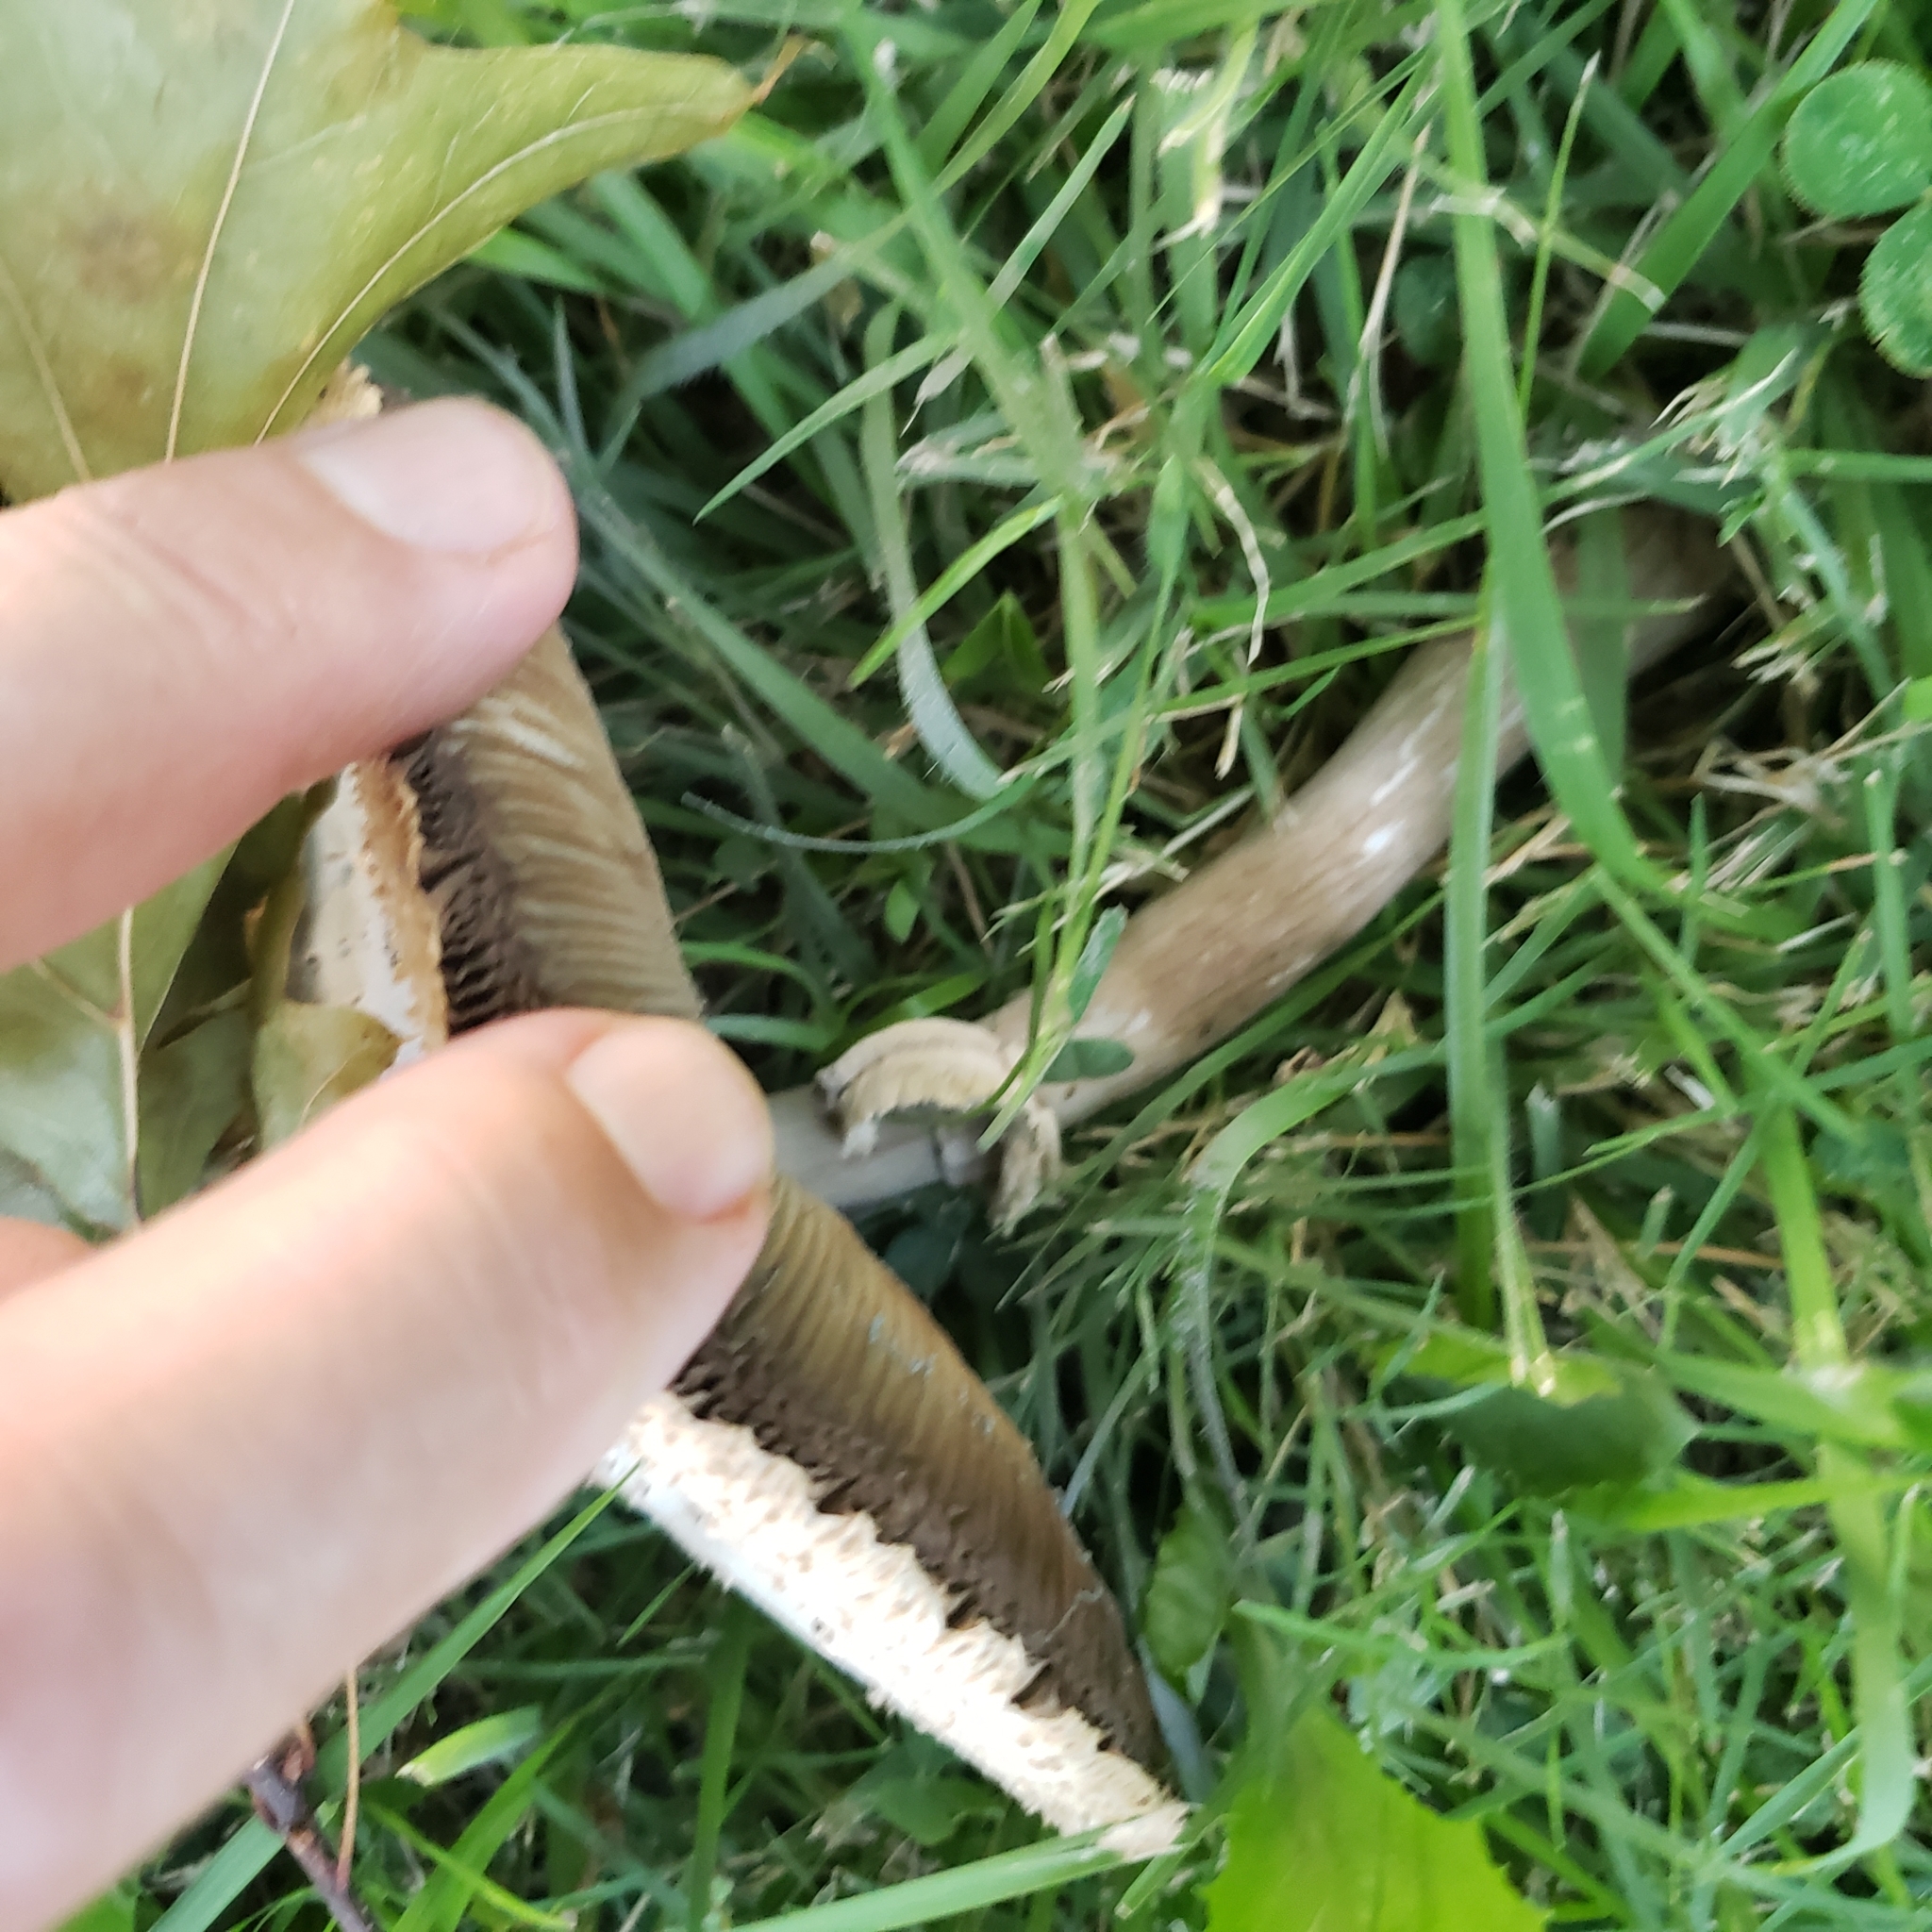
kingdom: Fungi
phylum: Basidiomycota
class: Agaricomycetes
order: Agaricales
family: Agaricaceae
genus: Chlorophyllum
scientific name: Chlorophyllum molybdites
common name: False parasol
